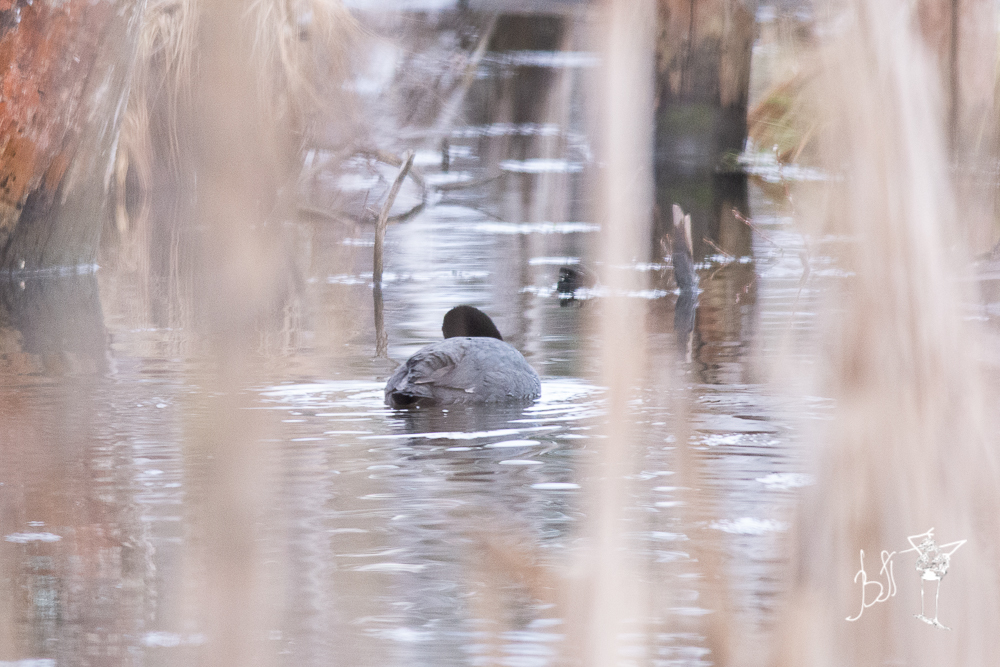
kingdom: Animalia
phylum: Chordata
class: Aves
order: Gruiformes
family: Rallidae
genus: Fulica
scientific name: Fulica atra
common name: Eurasian coot
